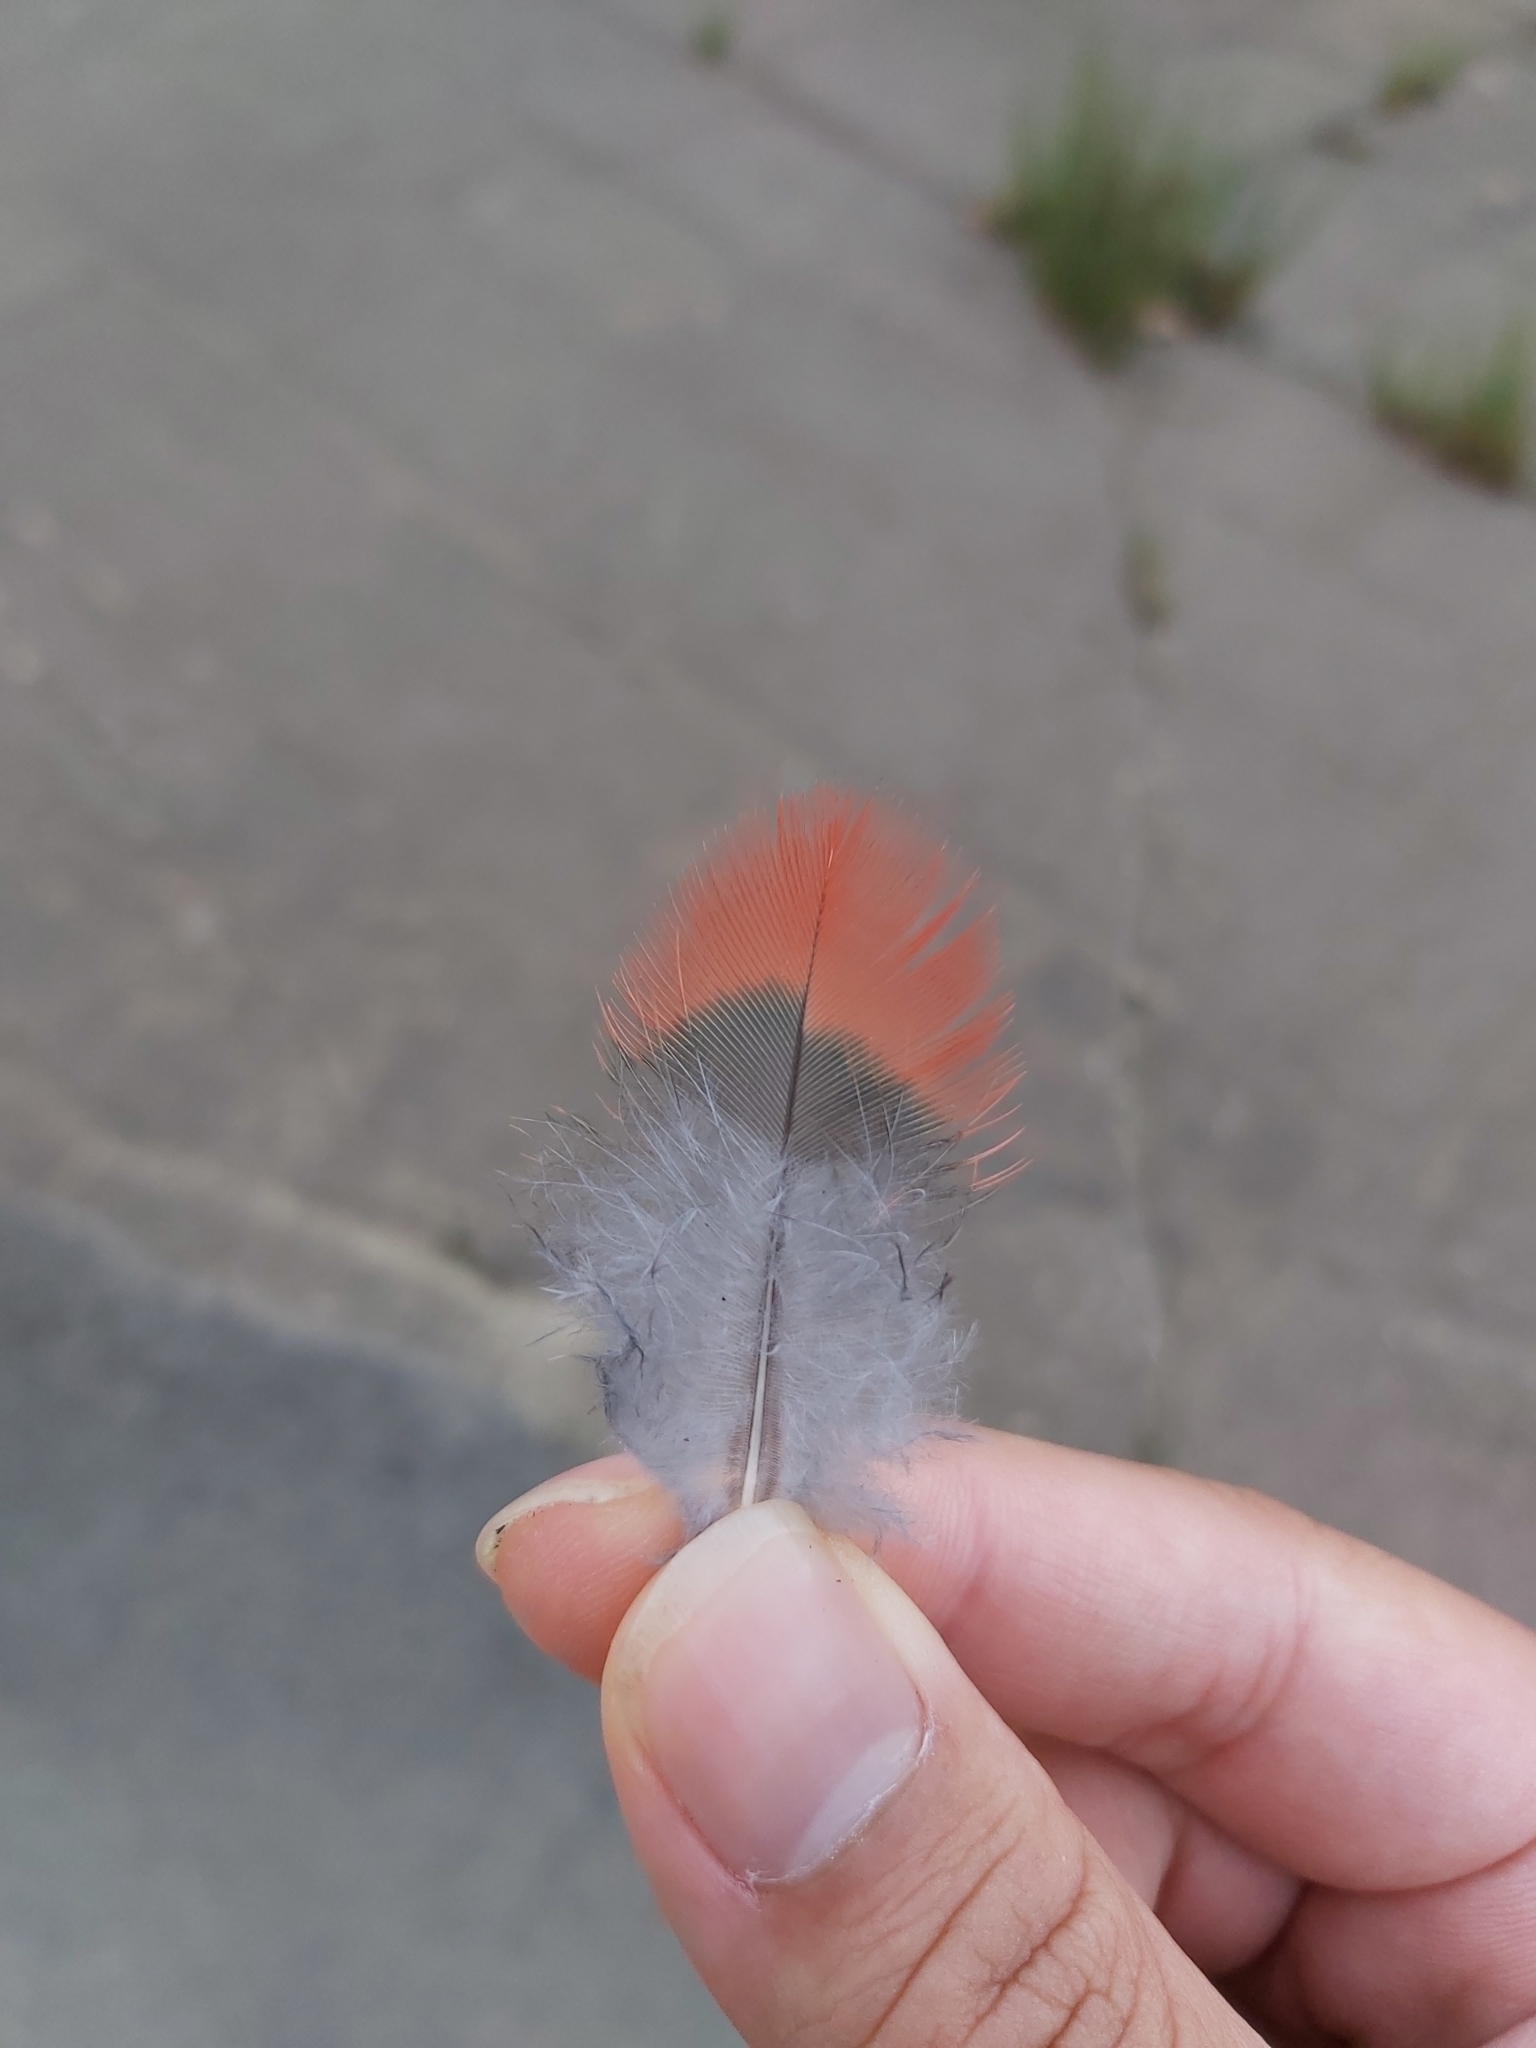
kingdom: Animalia
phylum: Chordata
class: Aves
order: Psittaciformes
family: Psittacidae
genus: Alisterus
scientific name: Alisterus scapularis
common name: Australian king parrot
